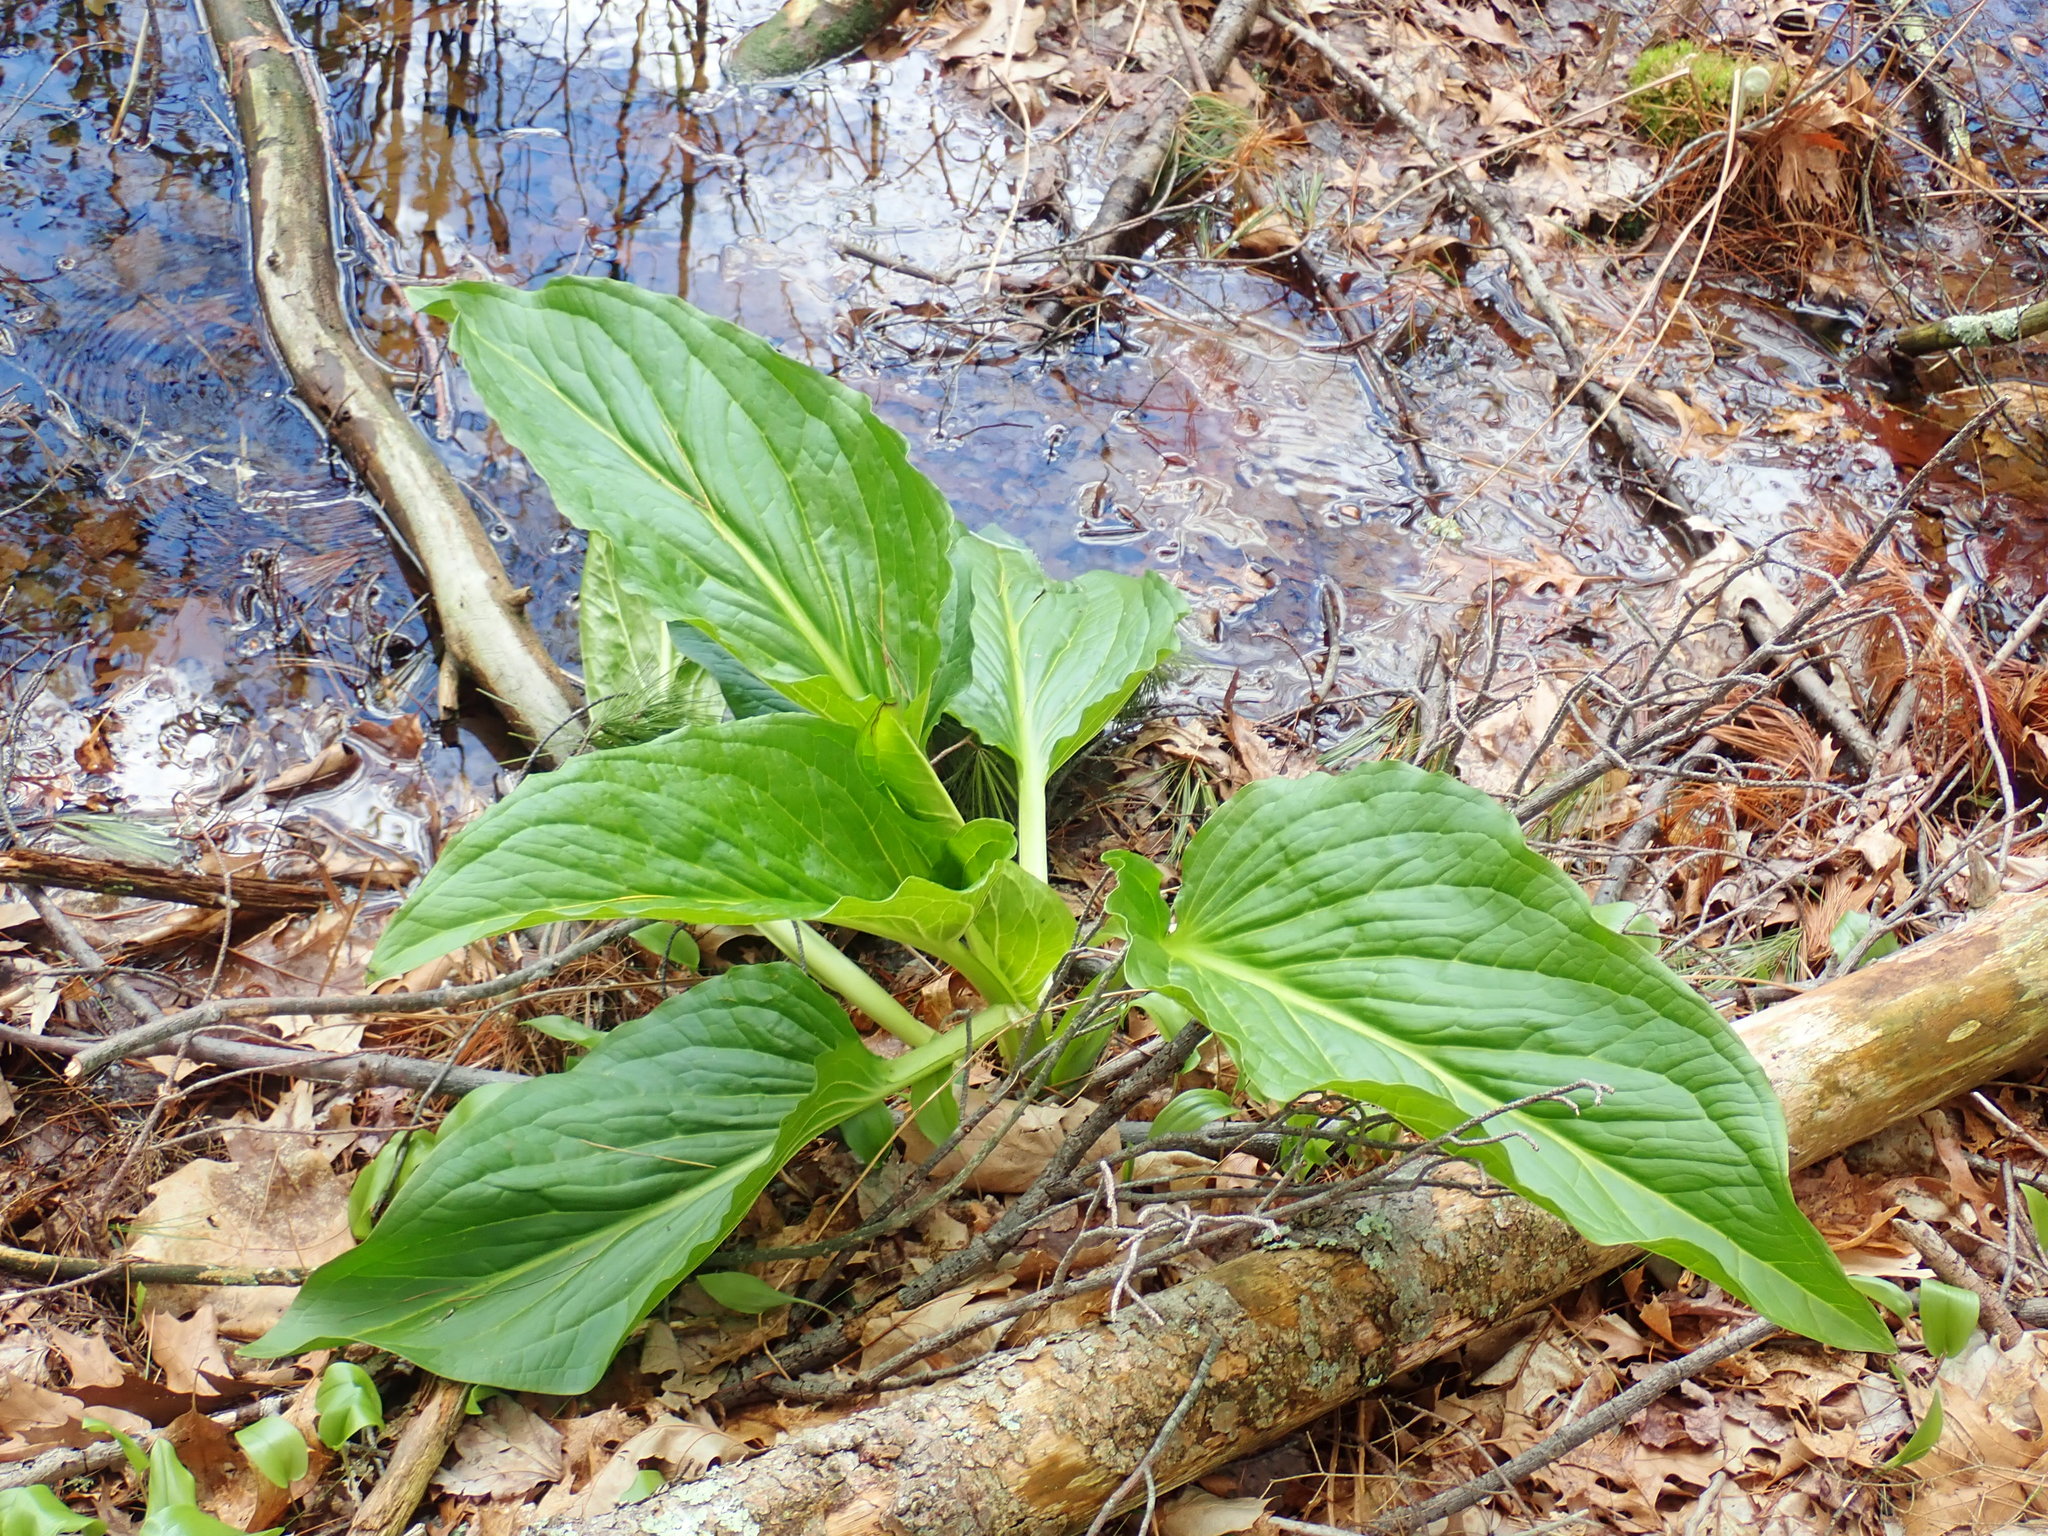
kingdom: Plantae
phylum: Tracheophyta
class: Liliopsida
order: Alismatales
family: Araceae
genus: Symplocarpus
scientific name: Symplocarpus foetidus
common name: Eastern skunk cabbage
